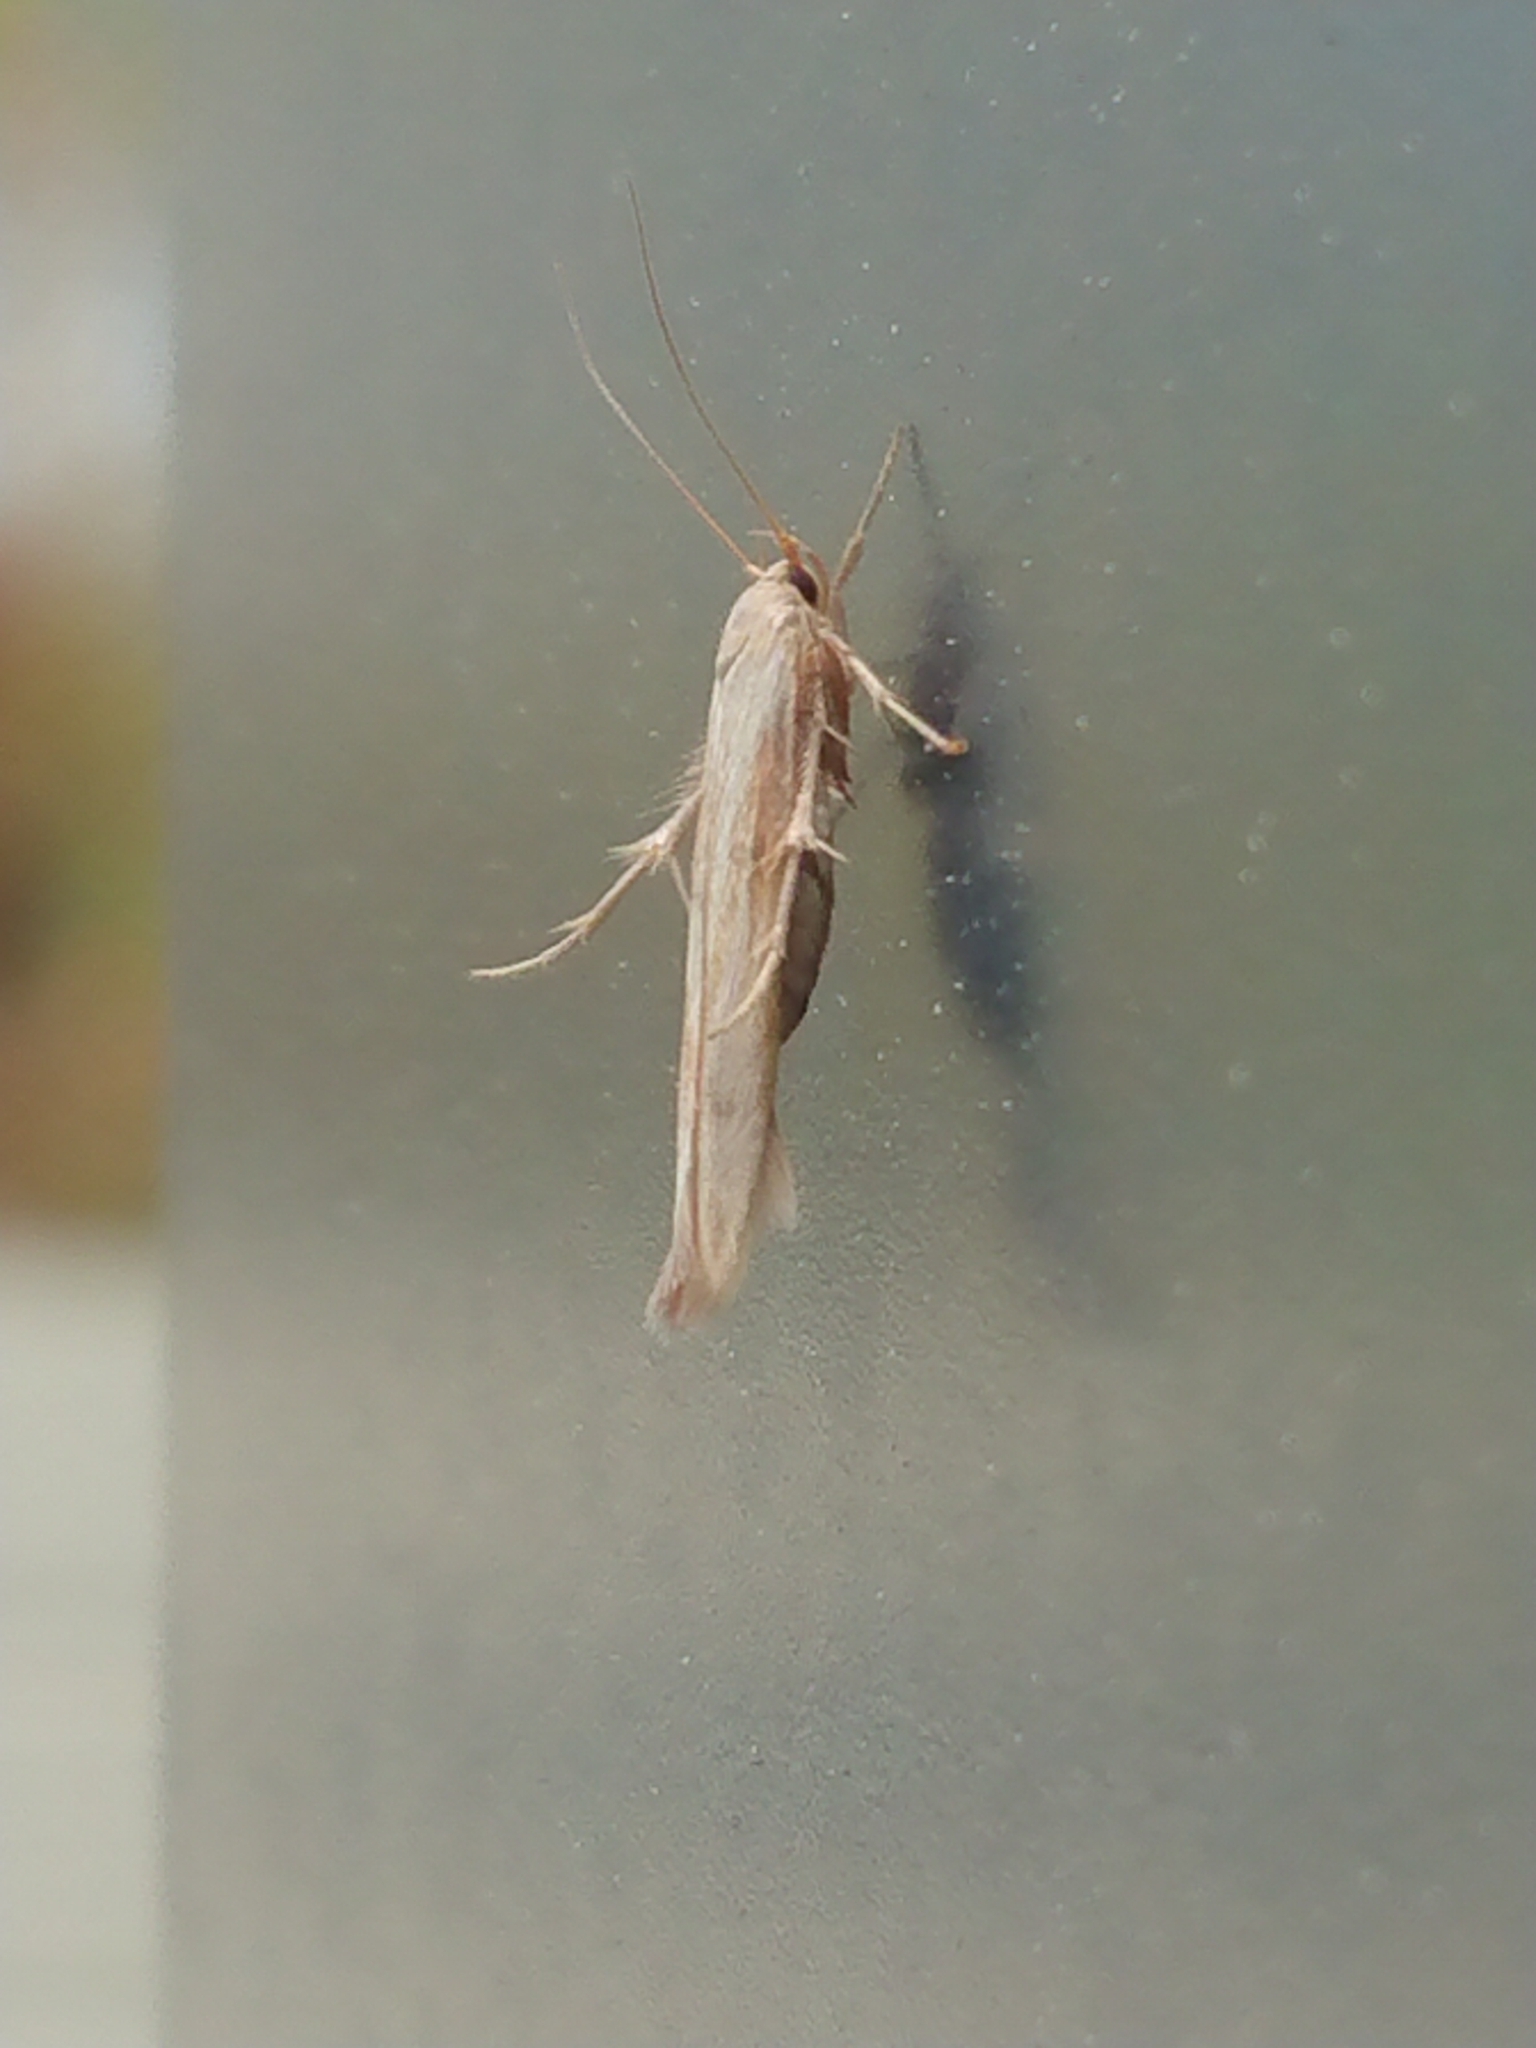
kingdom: Animalia
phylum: Arthropoda
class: Insecta
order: Lepidoptera
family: Stathmopodidae
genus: Stathmopoda
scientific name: Stathmopoda aposema
